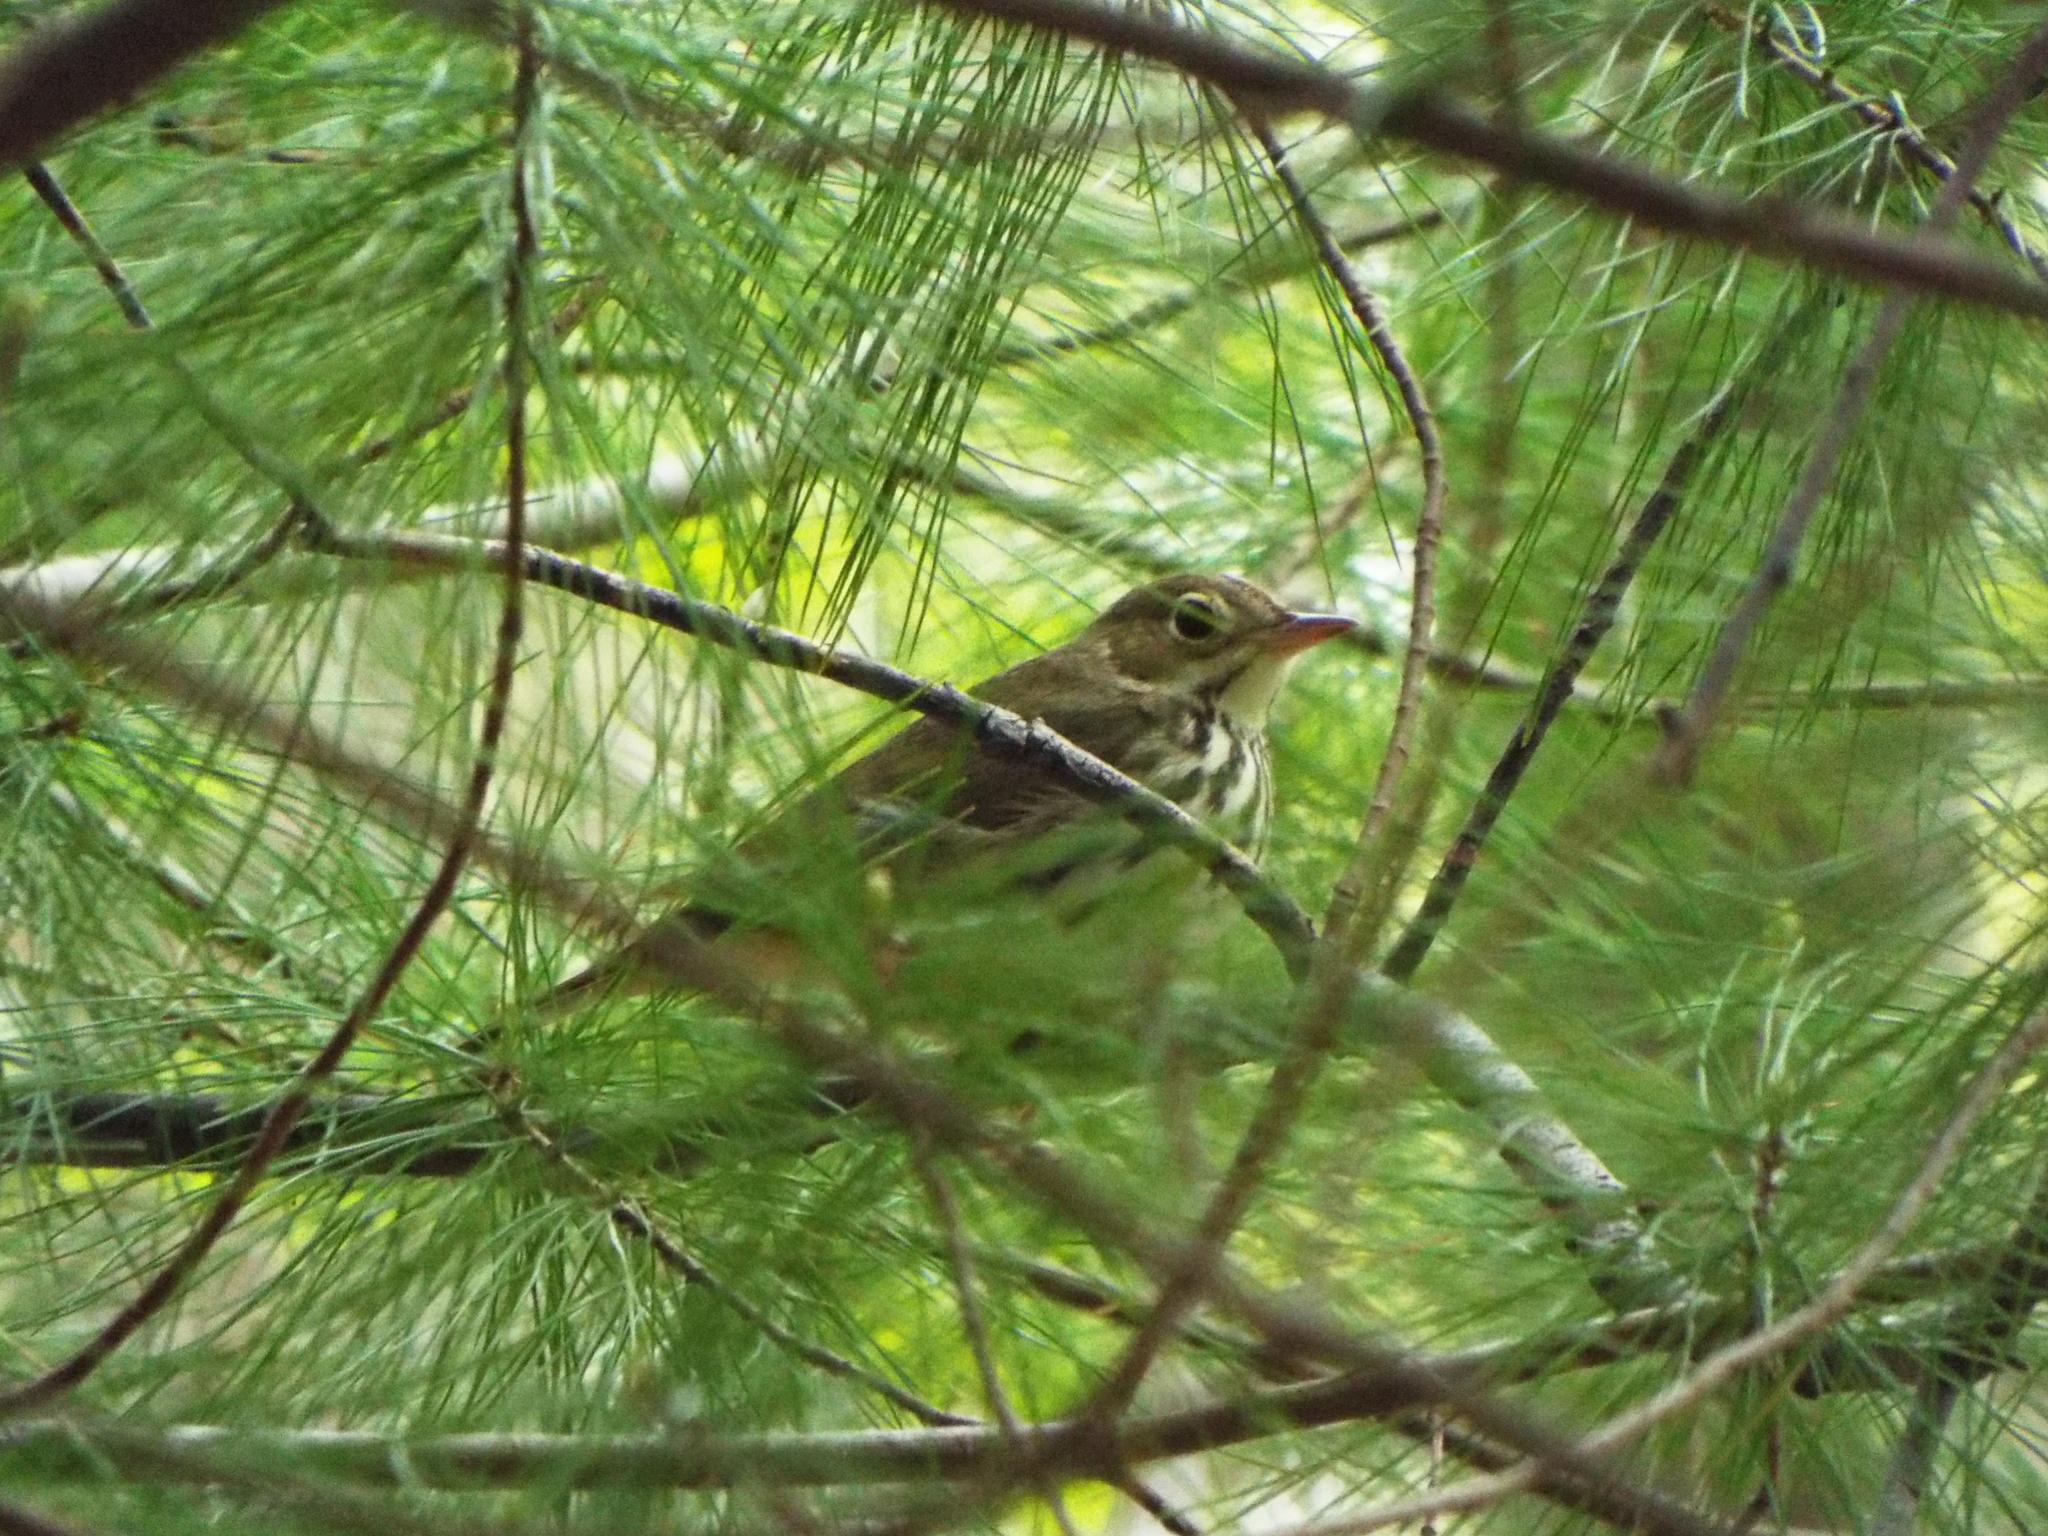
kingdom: Animalia
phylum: Chordata
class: Aves
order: Passeriformes
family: Parulidae
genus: Seiurus
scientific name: Seiurus aurocapilla
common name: Ovenbird
